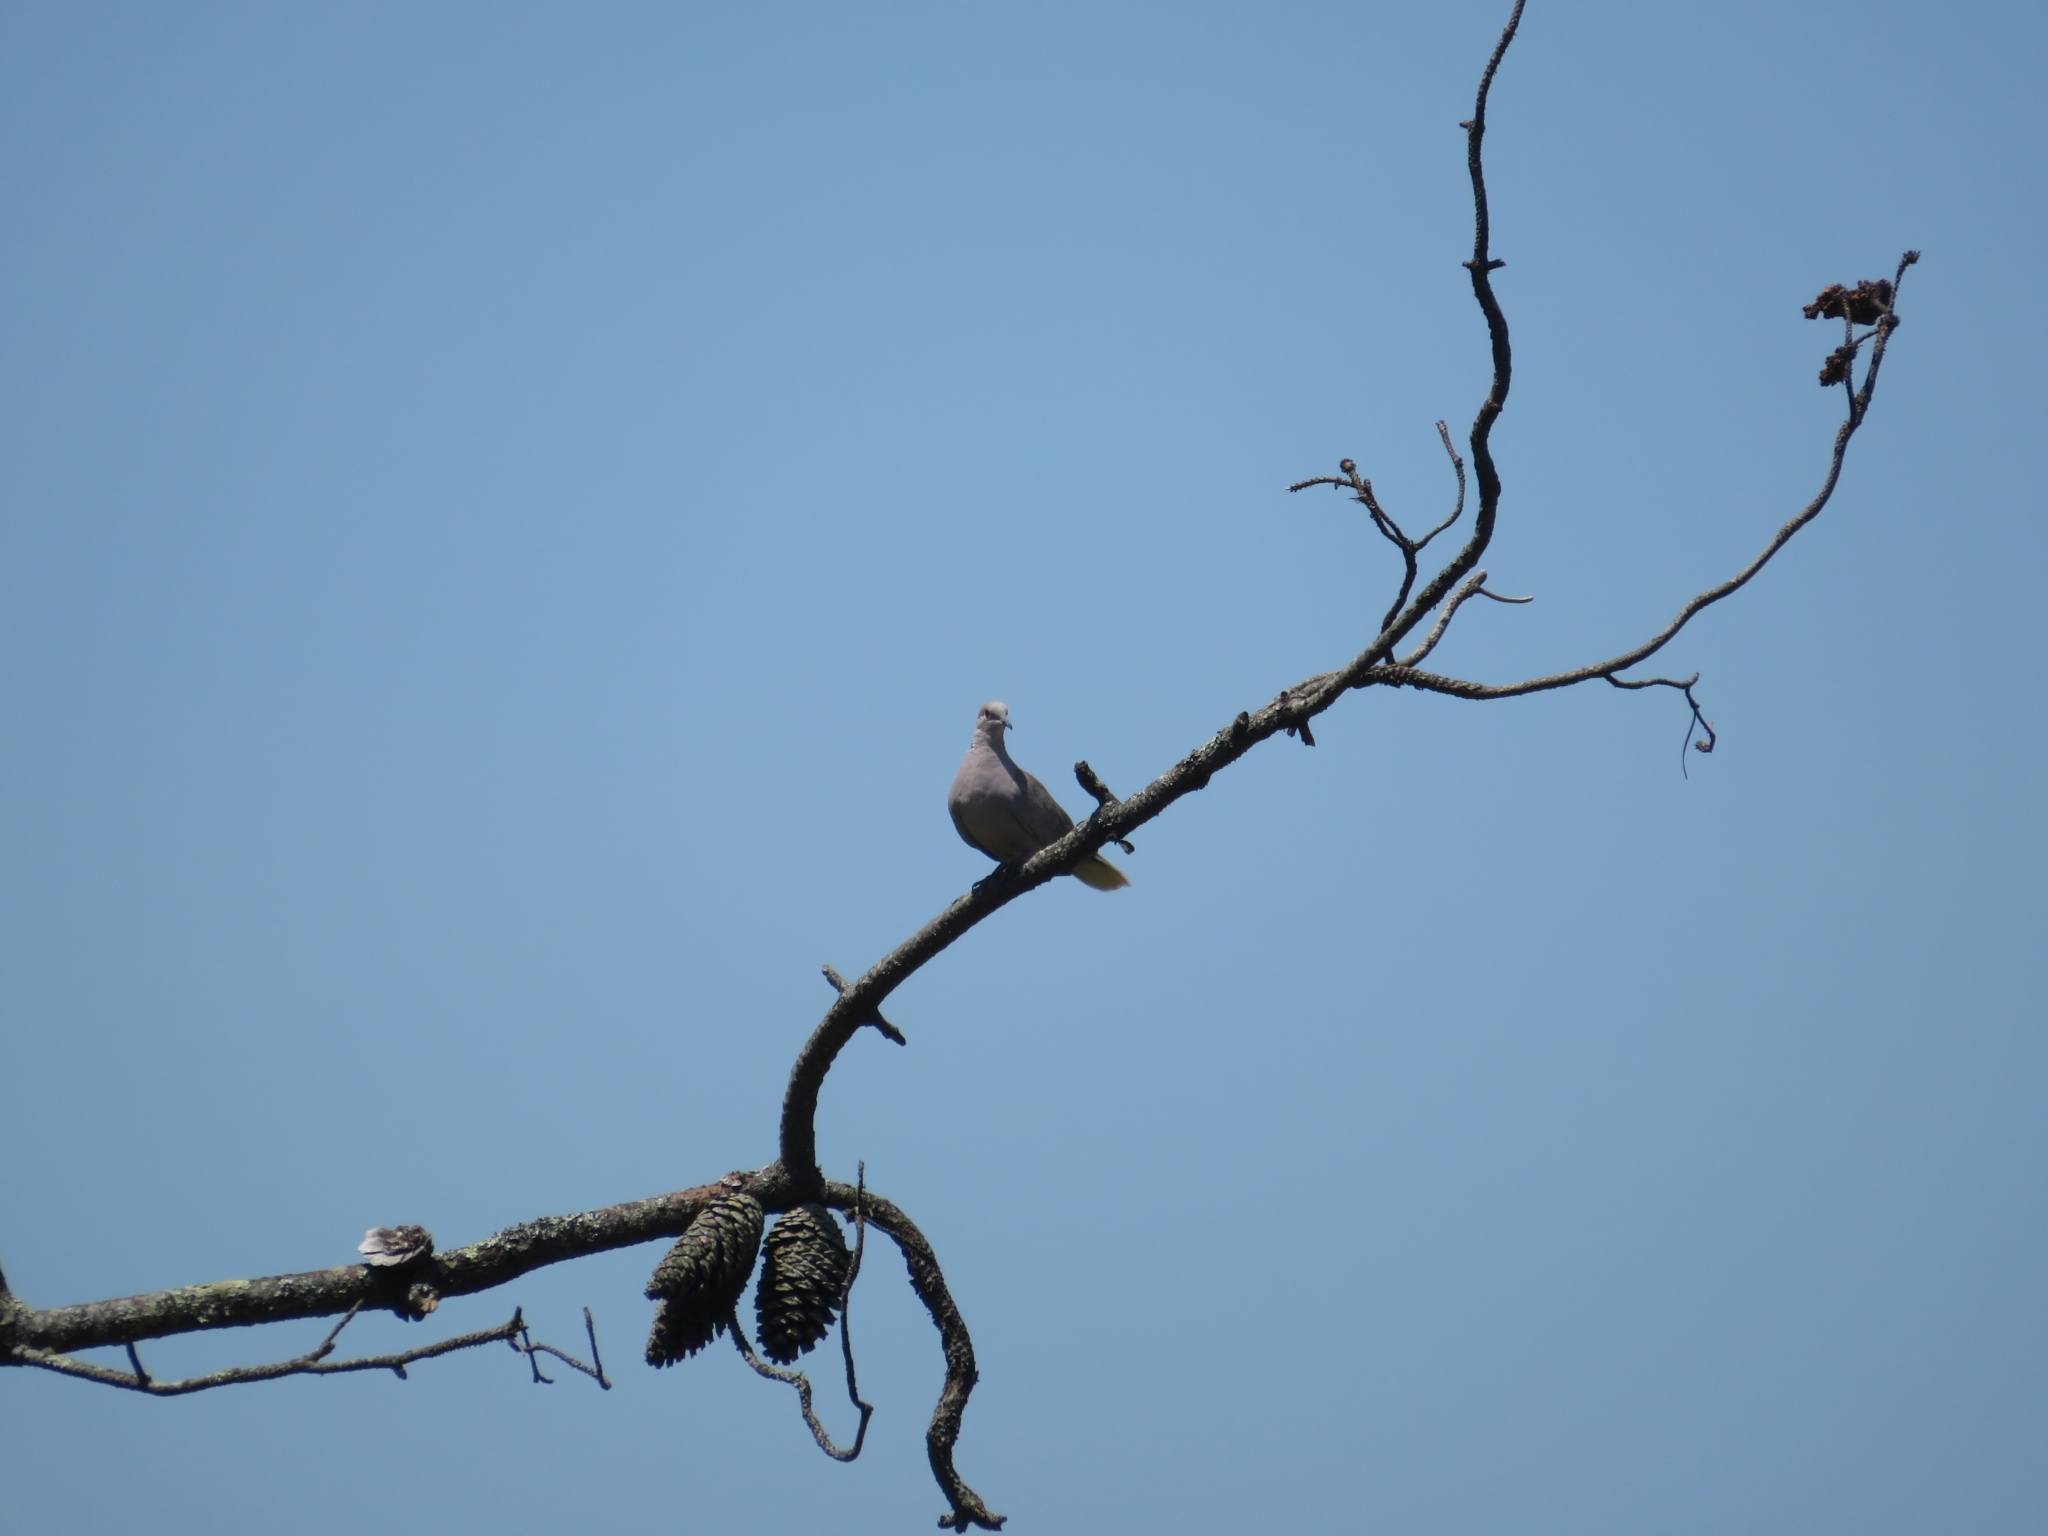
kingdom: Animalia
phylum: Chordata
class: Aves
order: Columbiformes
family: Columbidae
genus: Streptopelia
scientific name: Streptopelia decaocto
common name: Eurasian collared dove
